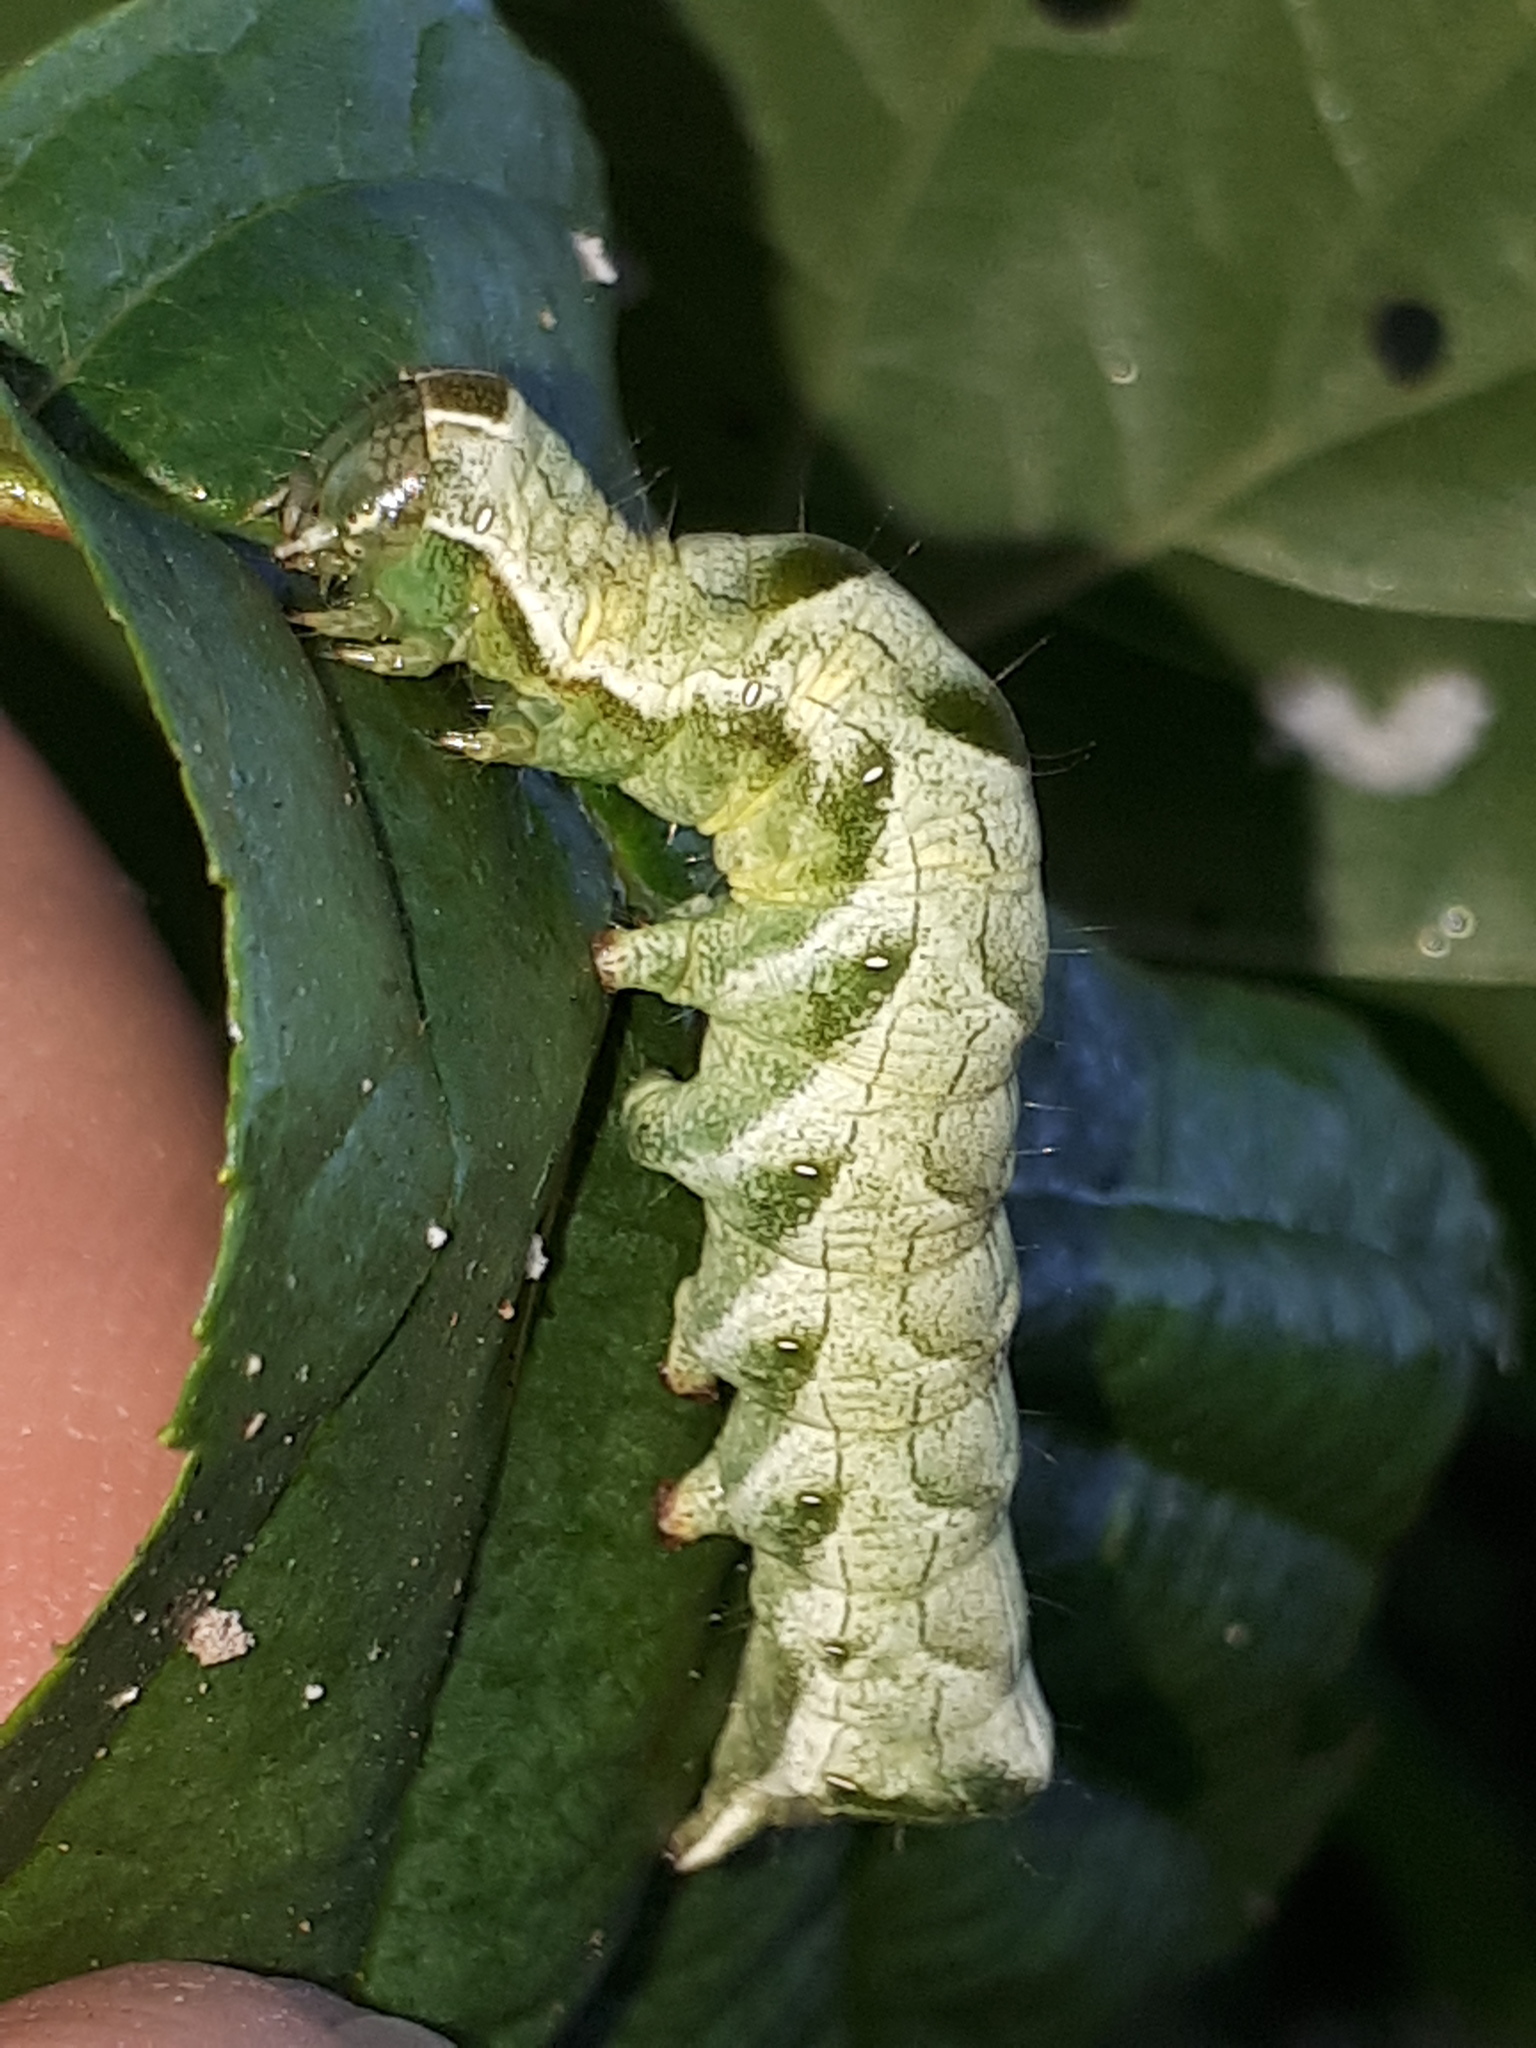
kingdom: Animalia
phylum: Arthropoda
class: Insecta
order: Lepidoptera
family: Noctuidae
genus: Melanchra
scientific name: Melanchra persicariae
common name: Dot moth
